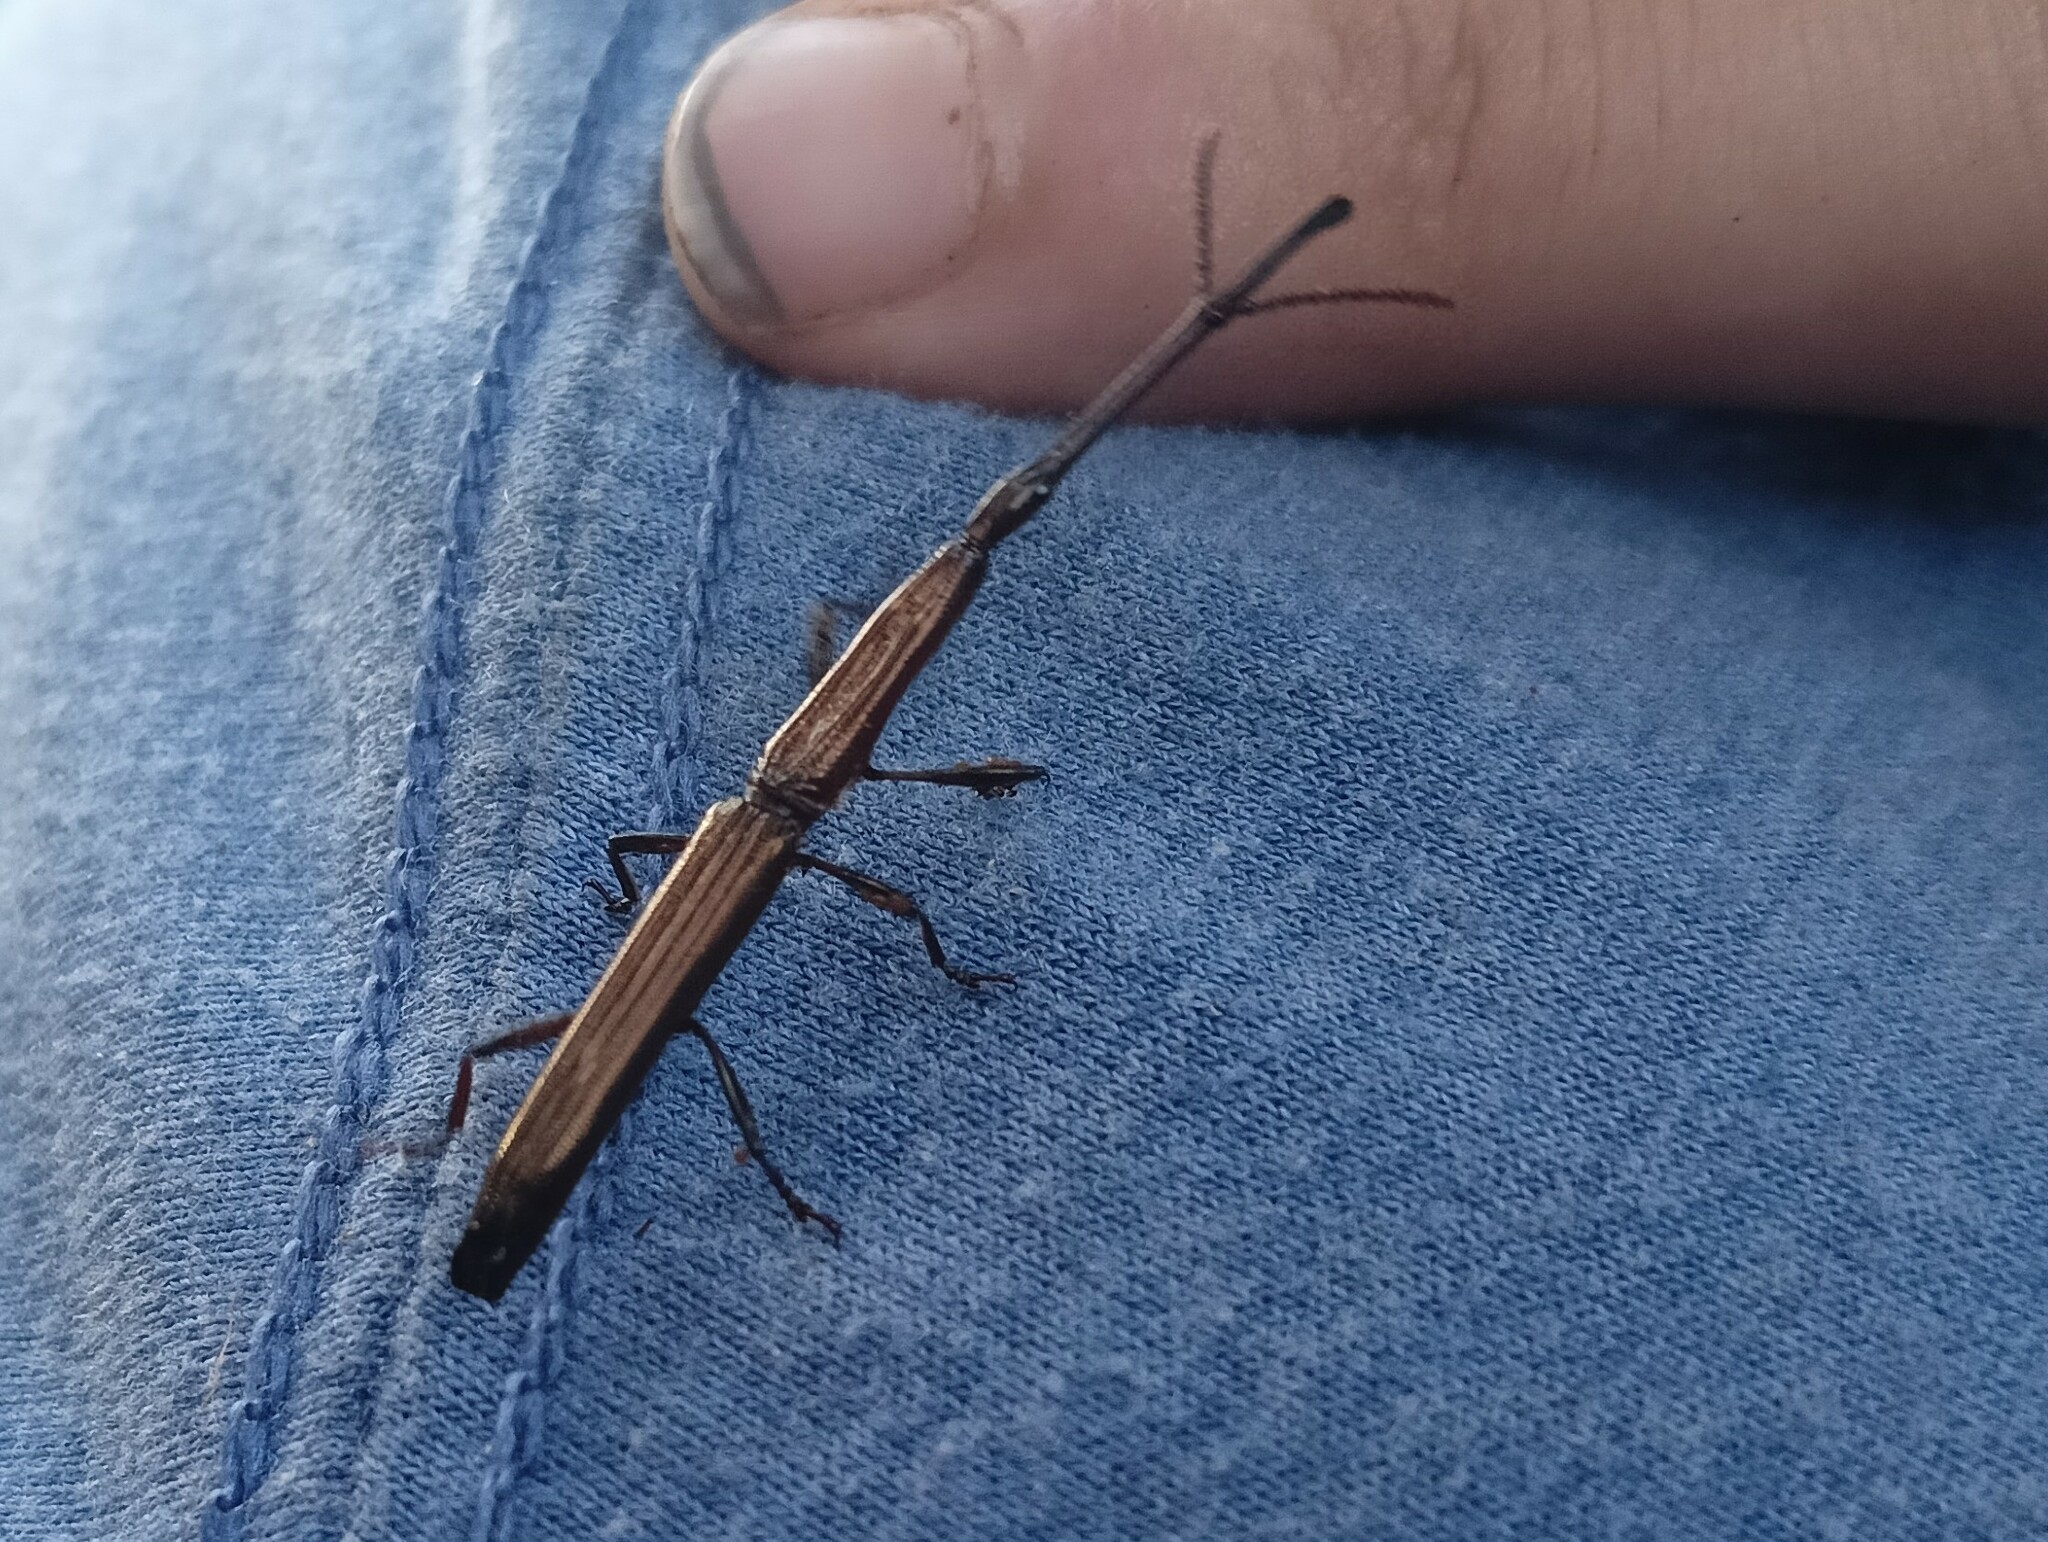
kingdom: Animalia
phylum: Arthropoda
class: Insecta
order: Coleoptera
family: Brentidae
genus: Eubactrus
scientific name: Eubactrus semiaeneus
